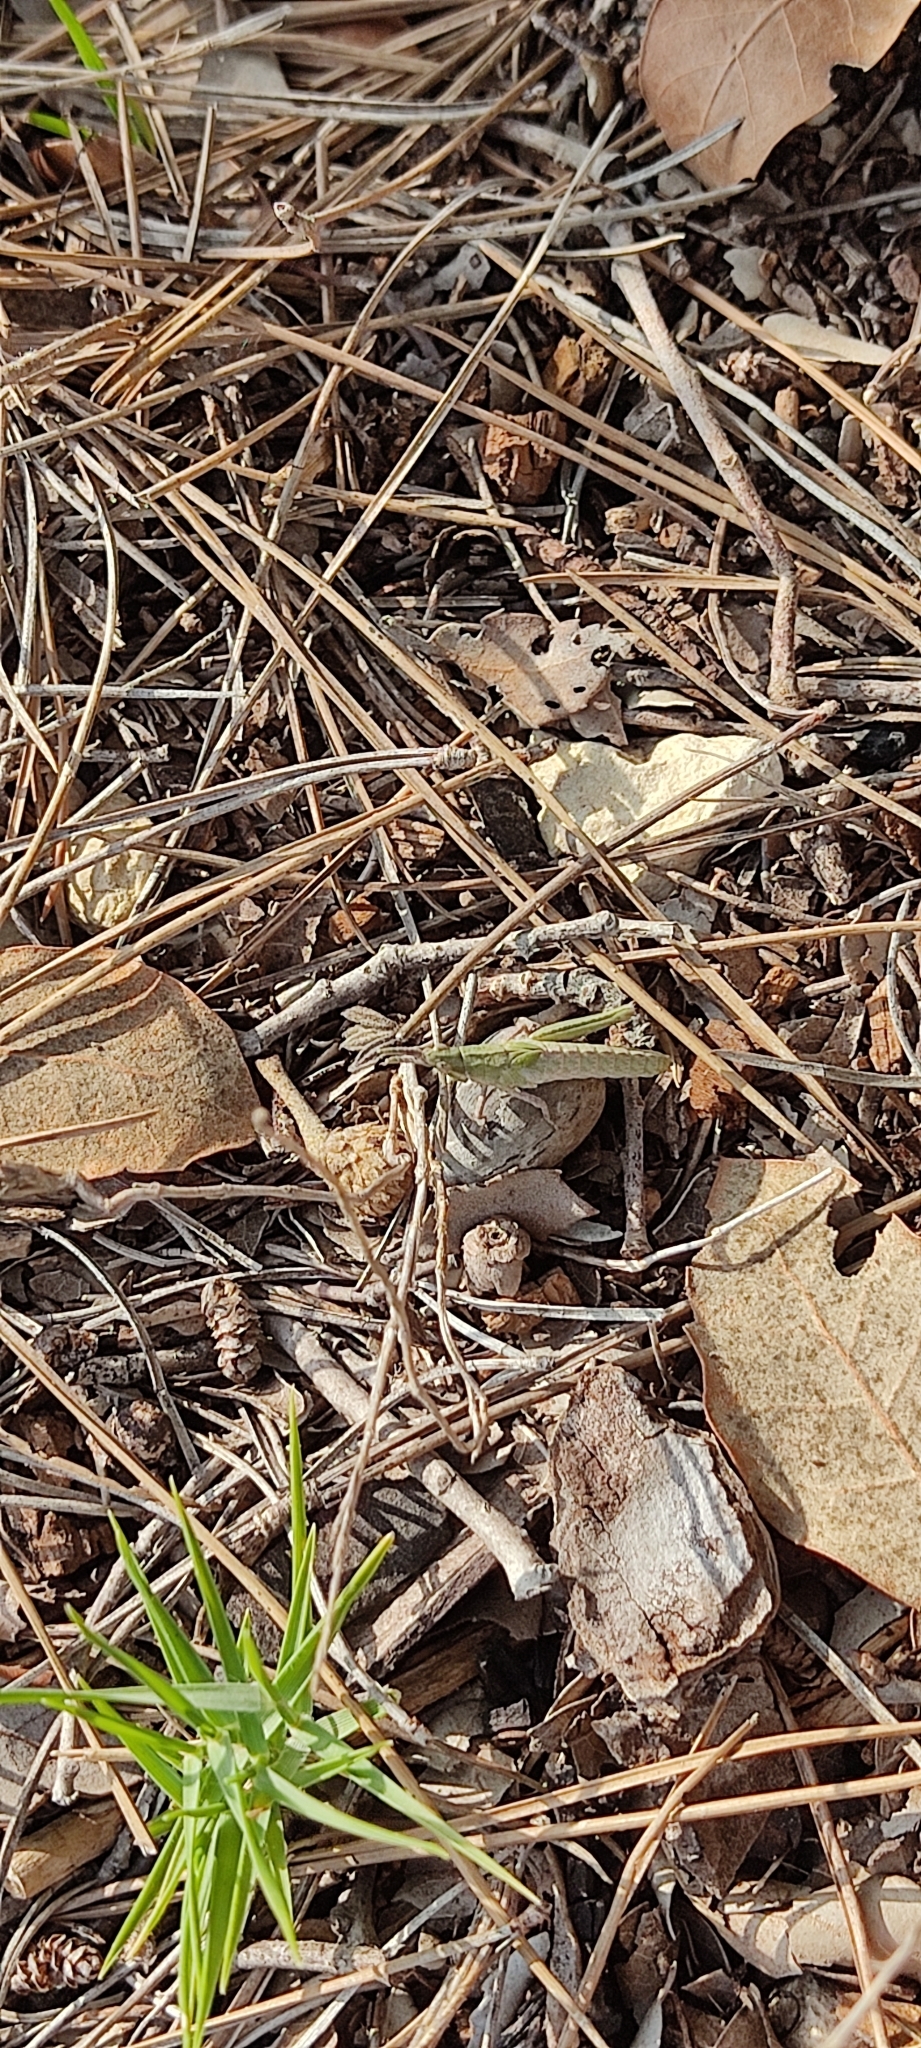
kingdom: Animalia
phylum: Arthropoda
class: Insecta
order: Orthoptera
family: Pyrgomorphidae
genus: Pyrgomorpha
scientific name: Pyrgomorpha conica
